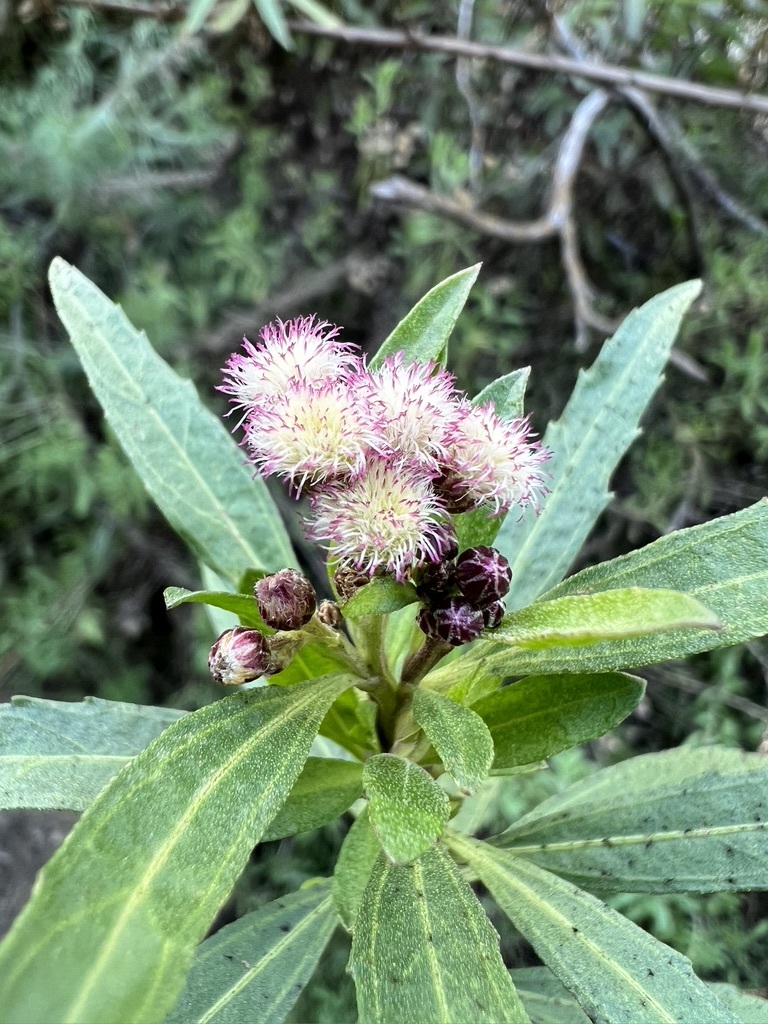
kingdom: Plantae
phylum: Tracheophyta
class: Magnoliopsida
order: Asterales
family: Asteraceae
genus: Baccharis
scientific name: Baccharis salicifolia
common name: Sticky baccharis
